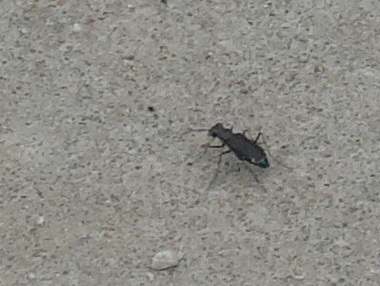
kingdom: Animalia
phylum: Arthropoda
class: Insecta
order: Coleoptera
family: Carabidae
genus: Cicindela
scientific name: Cicindela punctulata
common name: Punctured tiger beetle
